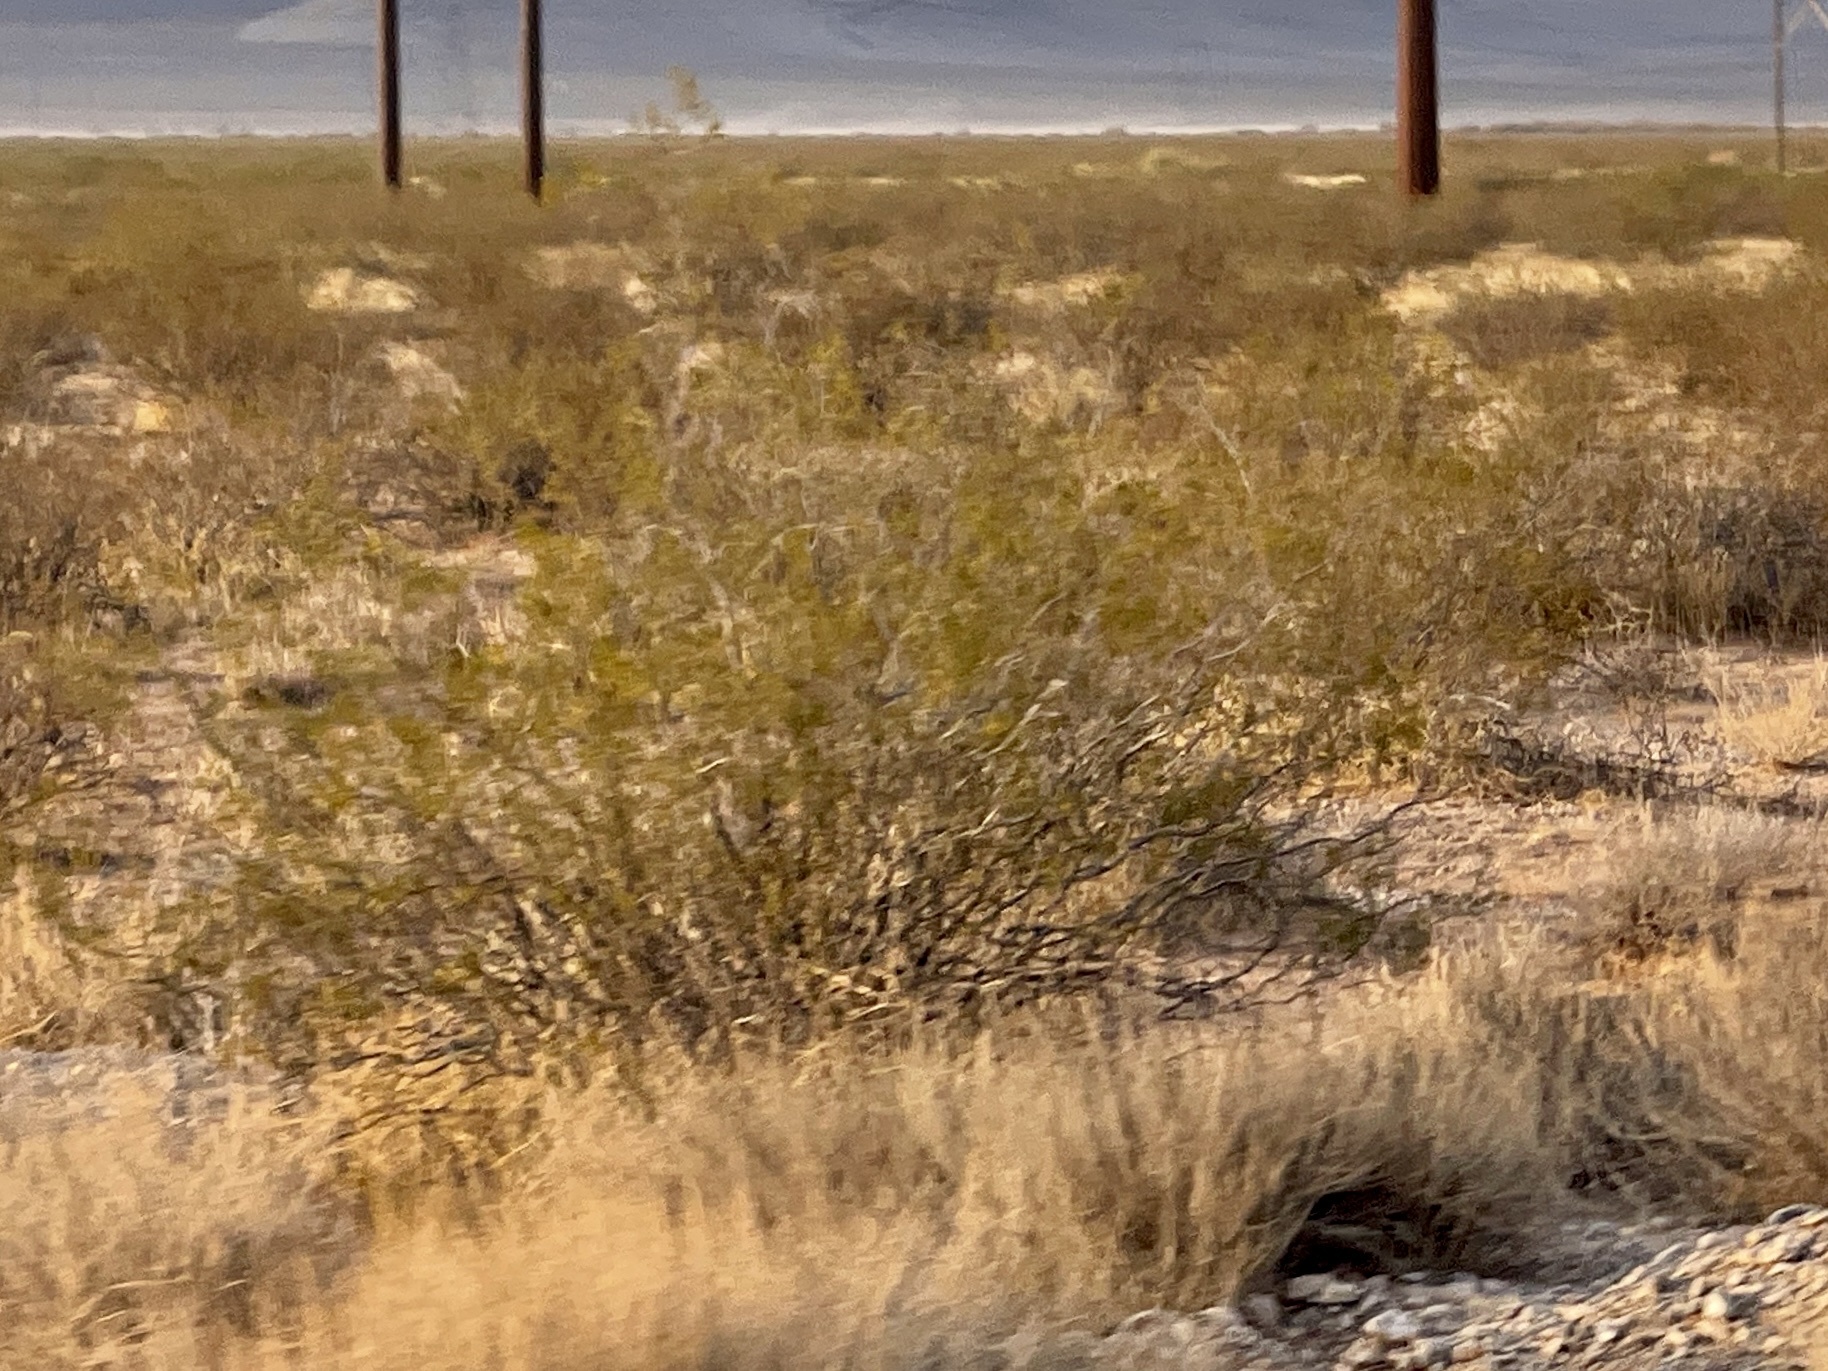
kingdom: Plantae
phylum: Tracheophyta
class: Magnoliopsida
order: Zygophyllales
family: Zygophyllaceae
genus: Larrea
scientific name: Larrea tridentata
